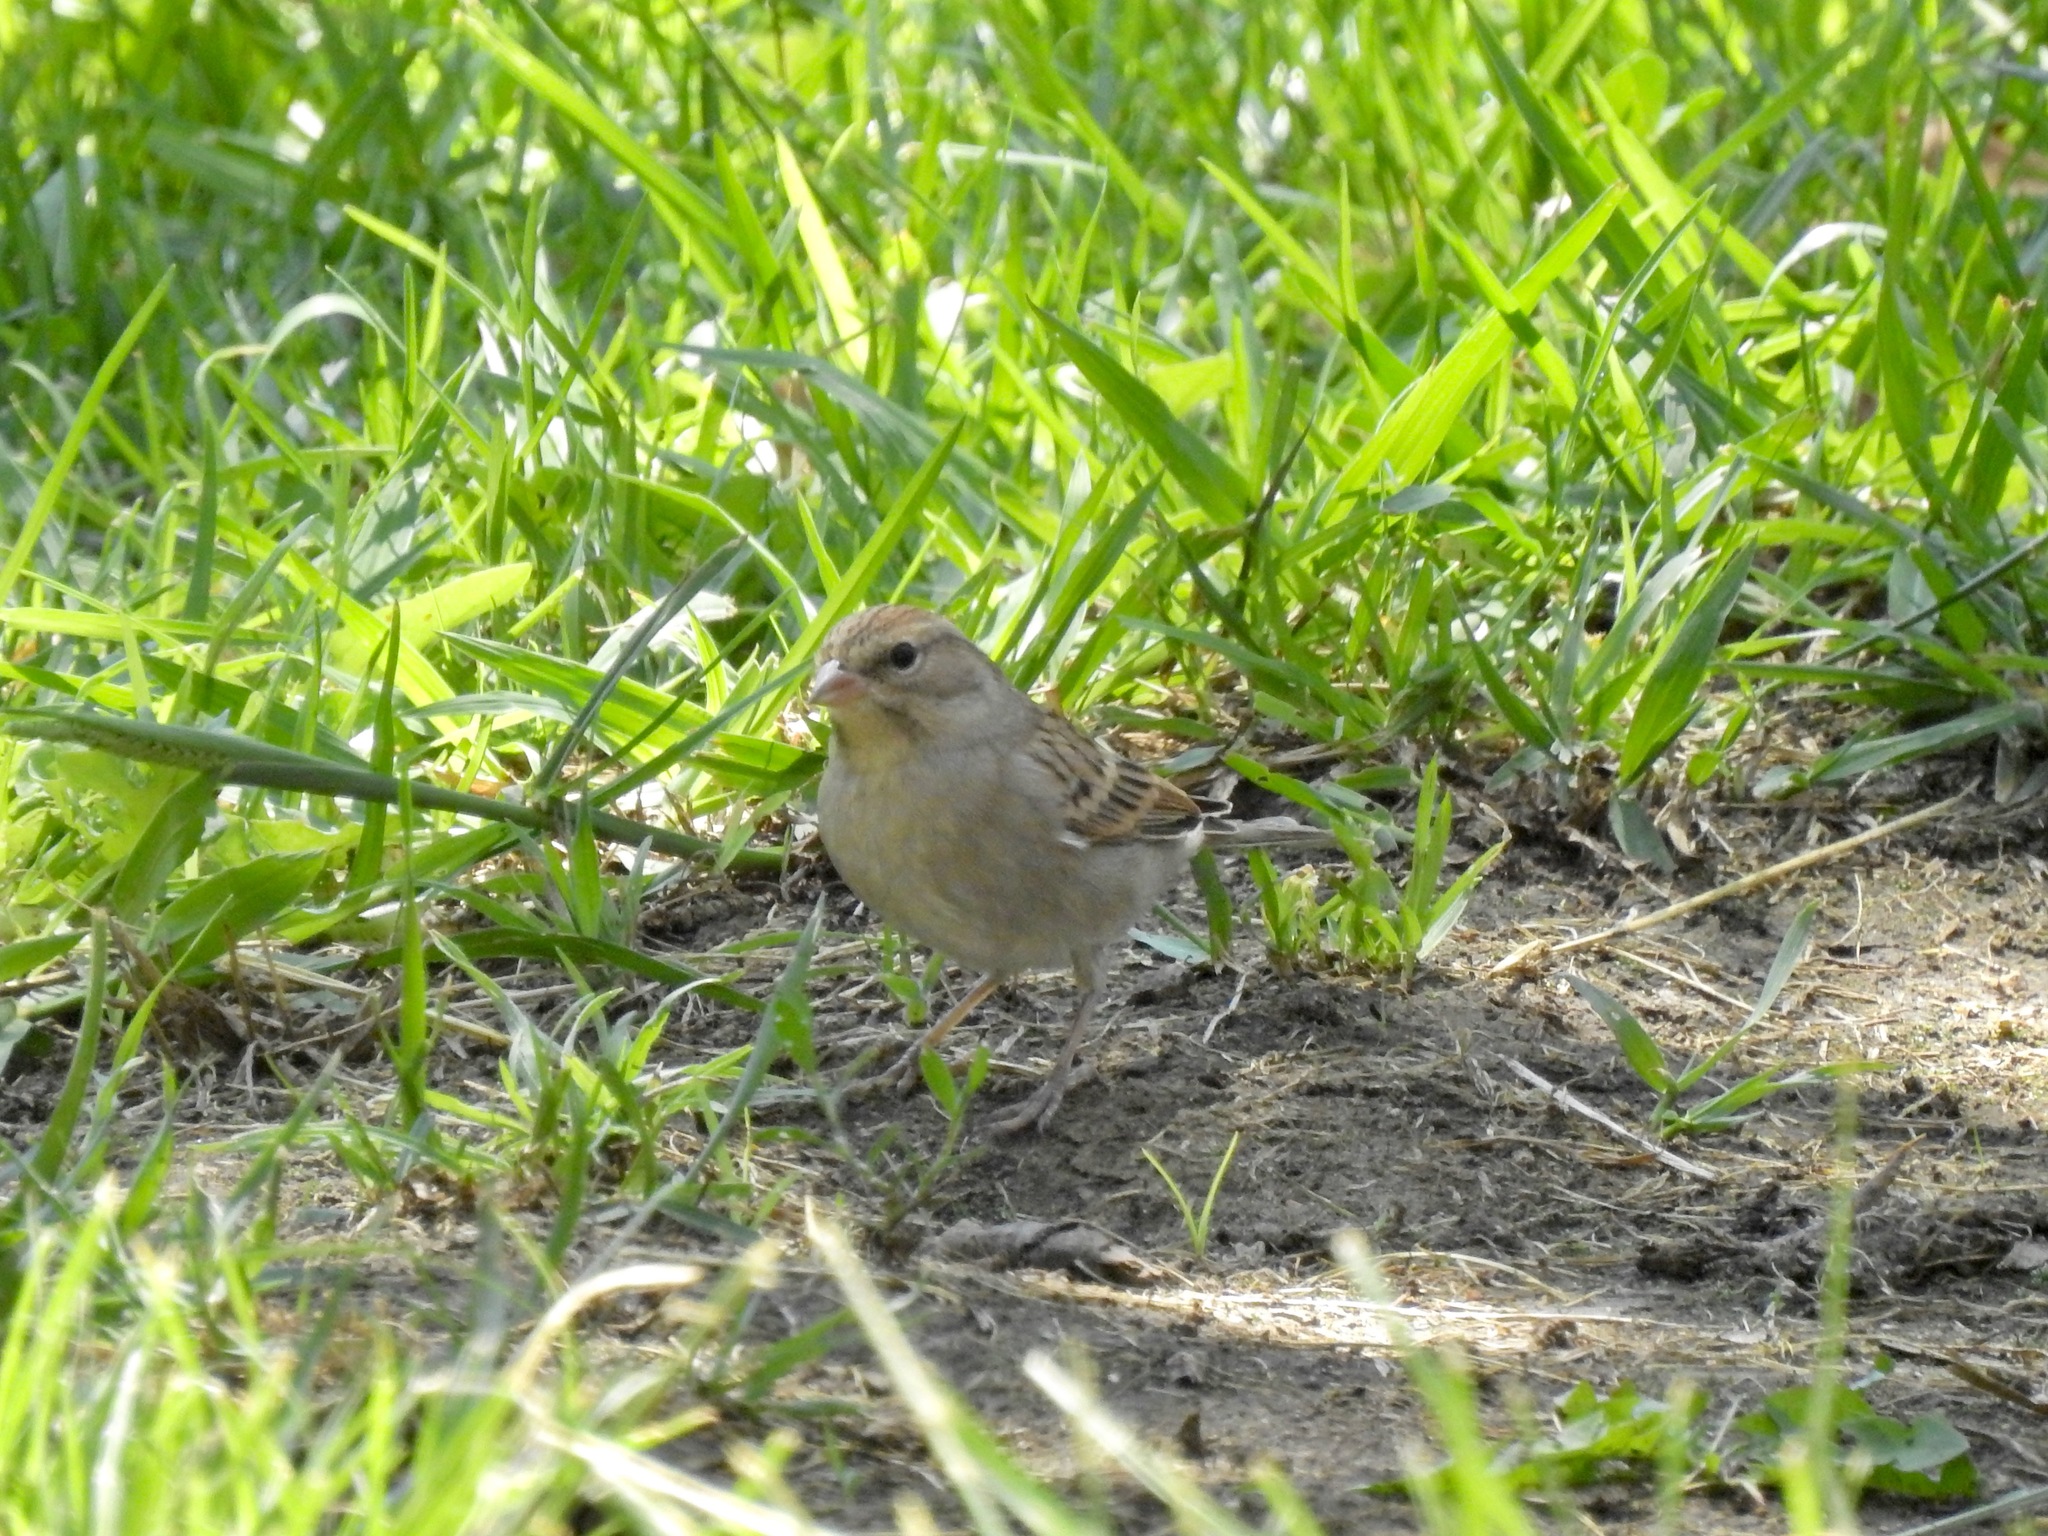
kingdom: Animalia
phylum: Chordata
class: Aves
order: Passeriformes
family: Passerellidae
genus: Spizella
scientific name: Spizella passerina
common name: Chipping sparrow
